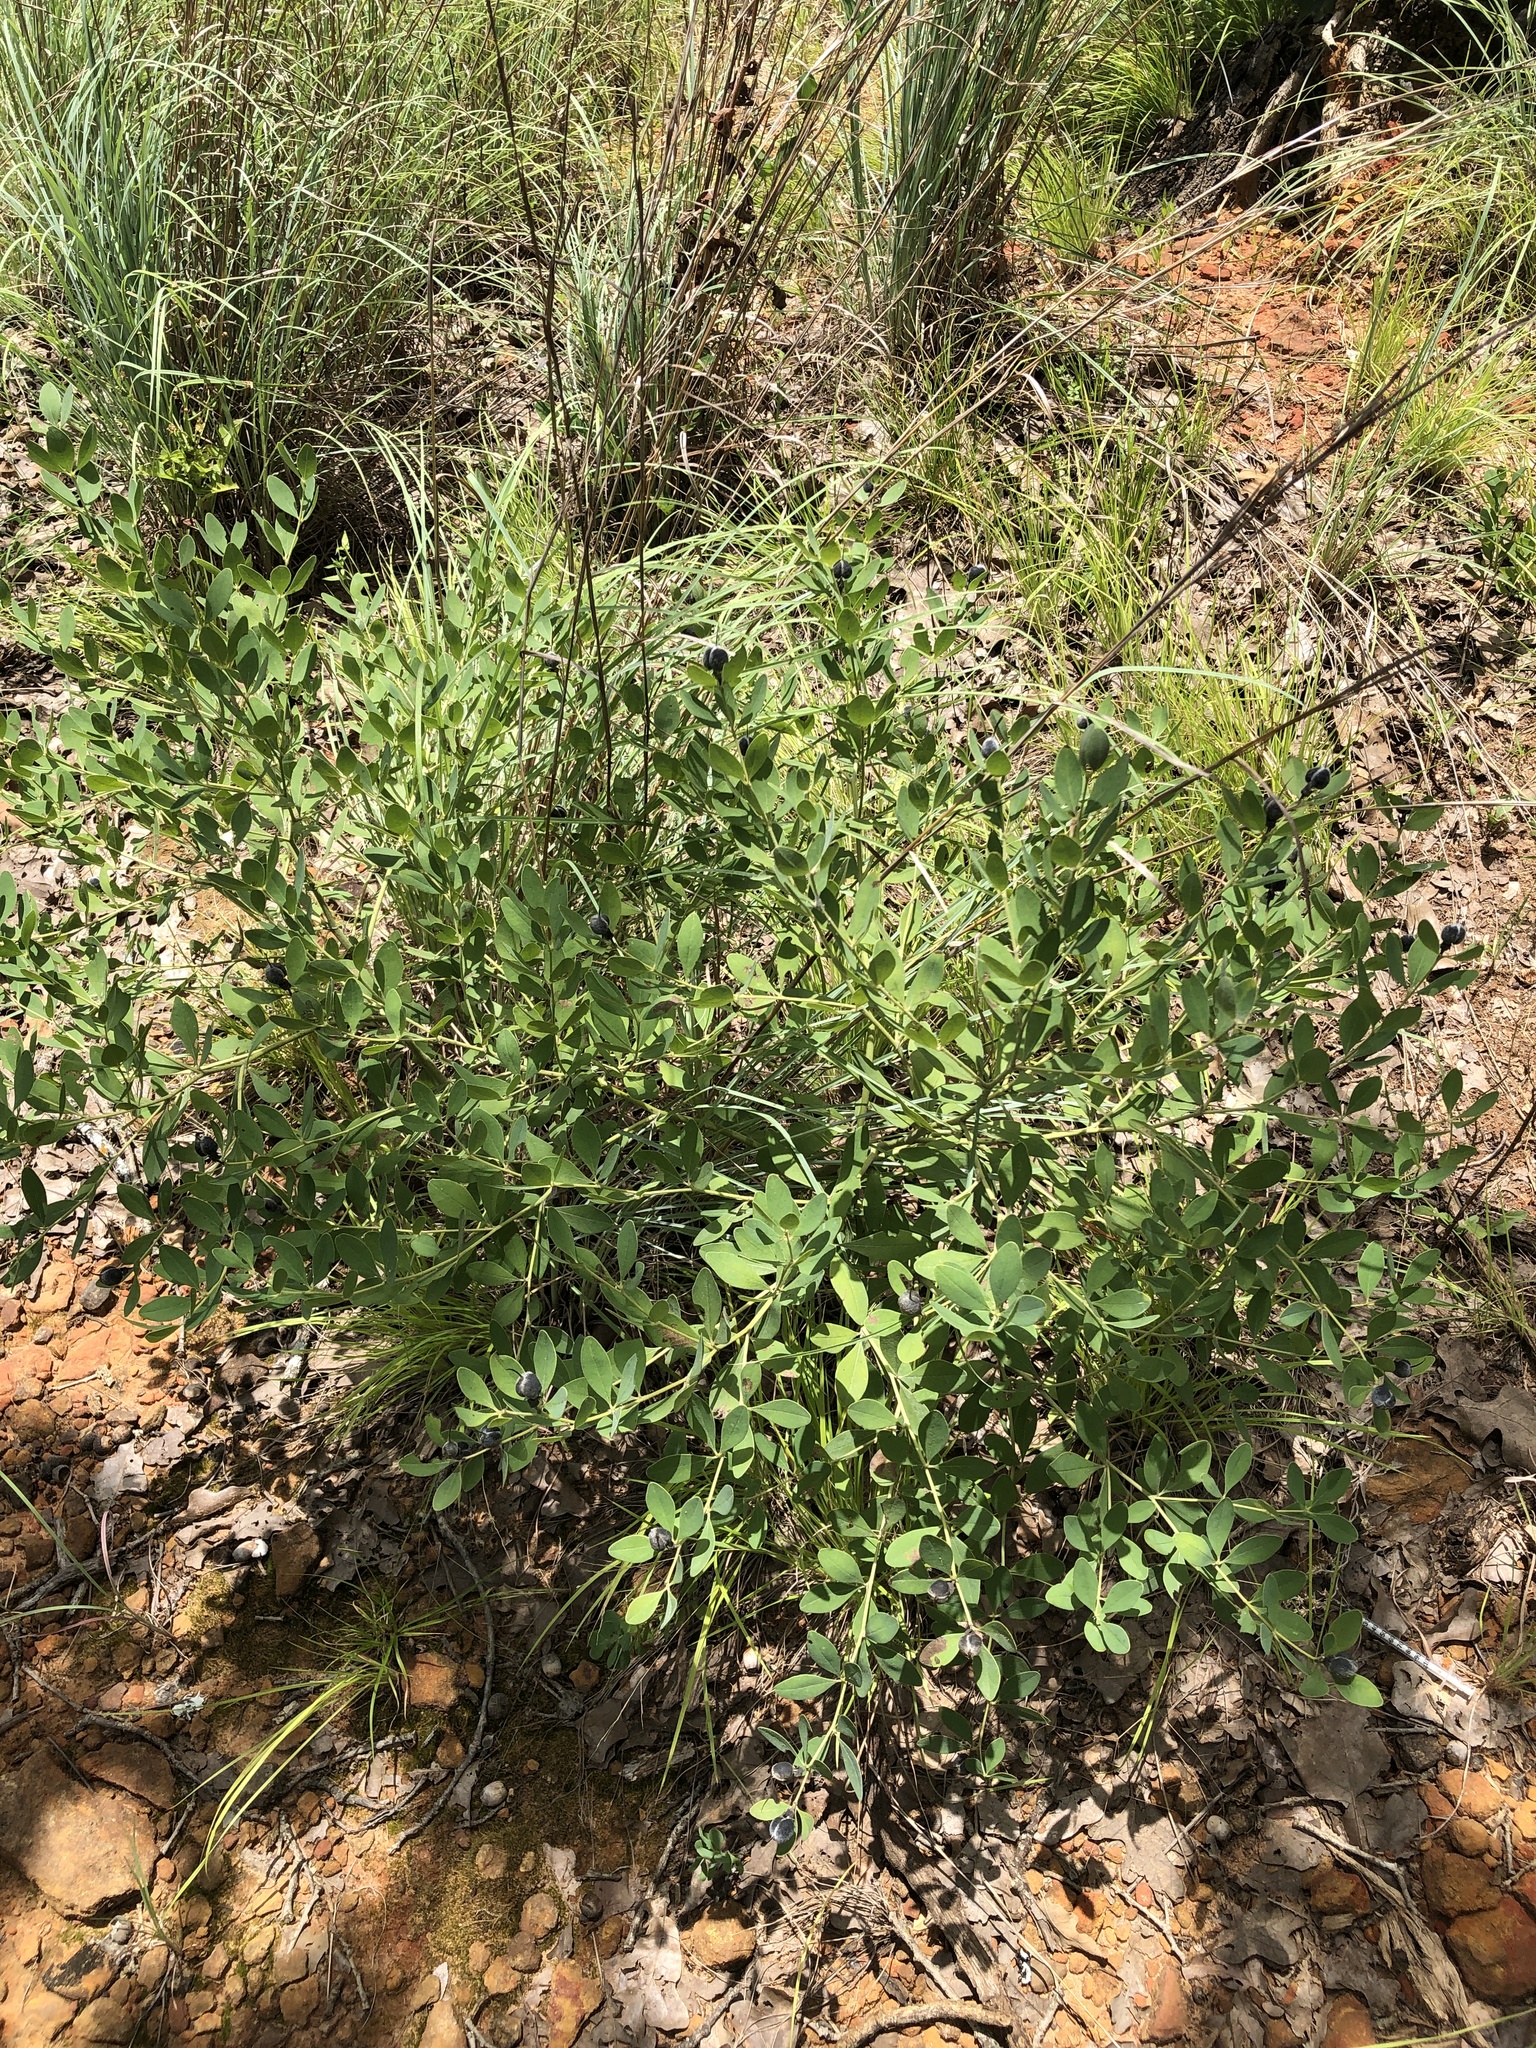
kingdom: Plantae
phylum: Tracheophyta
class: Magnoliopsida
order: Fabales
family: Fabaceae
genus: Baptisia
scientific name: Baptisia nuttalliana
